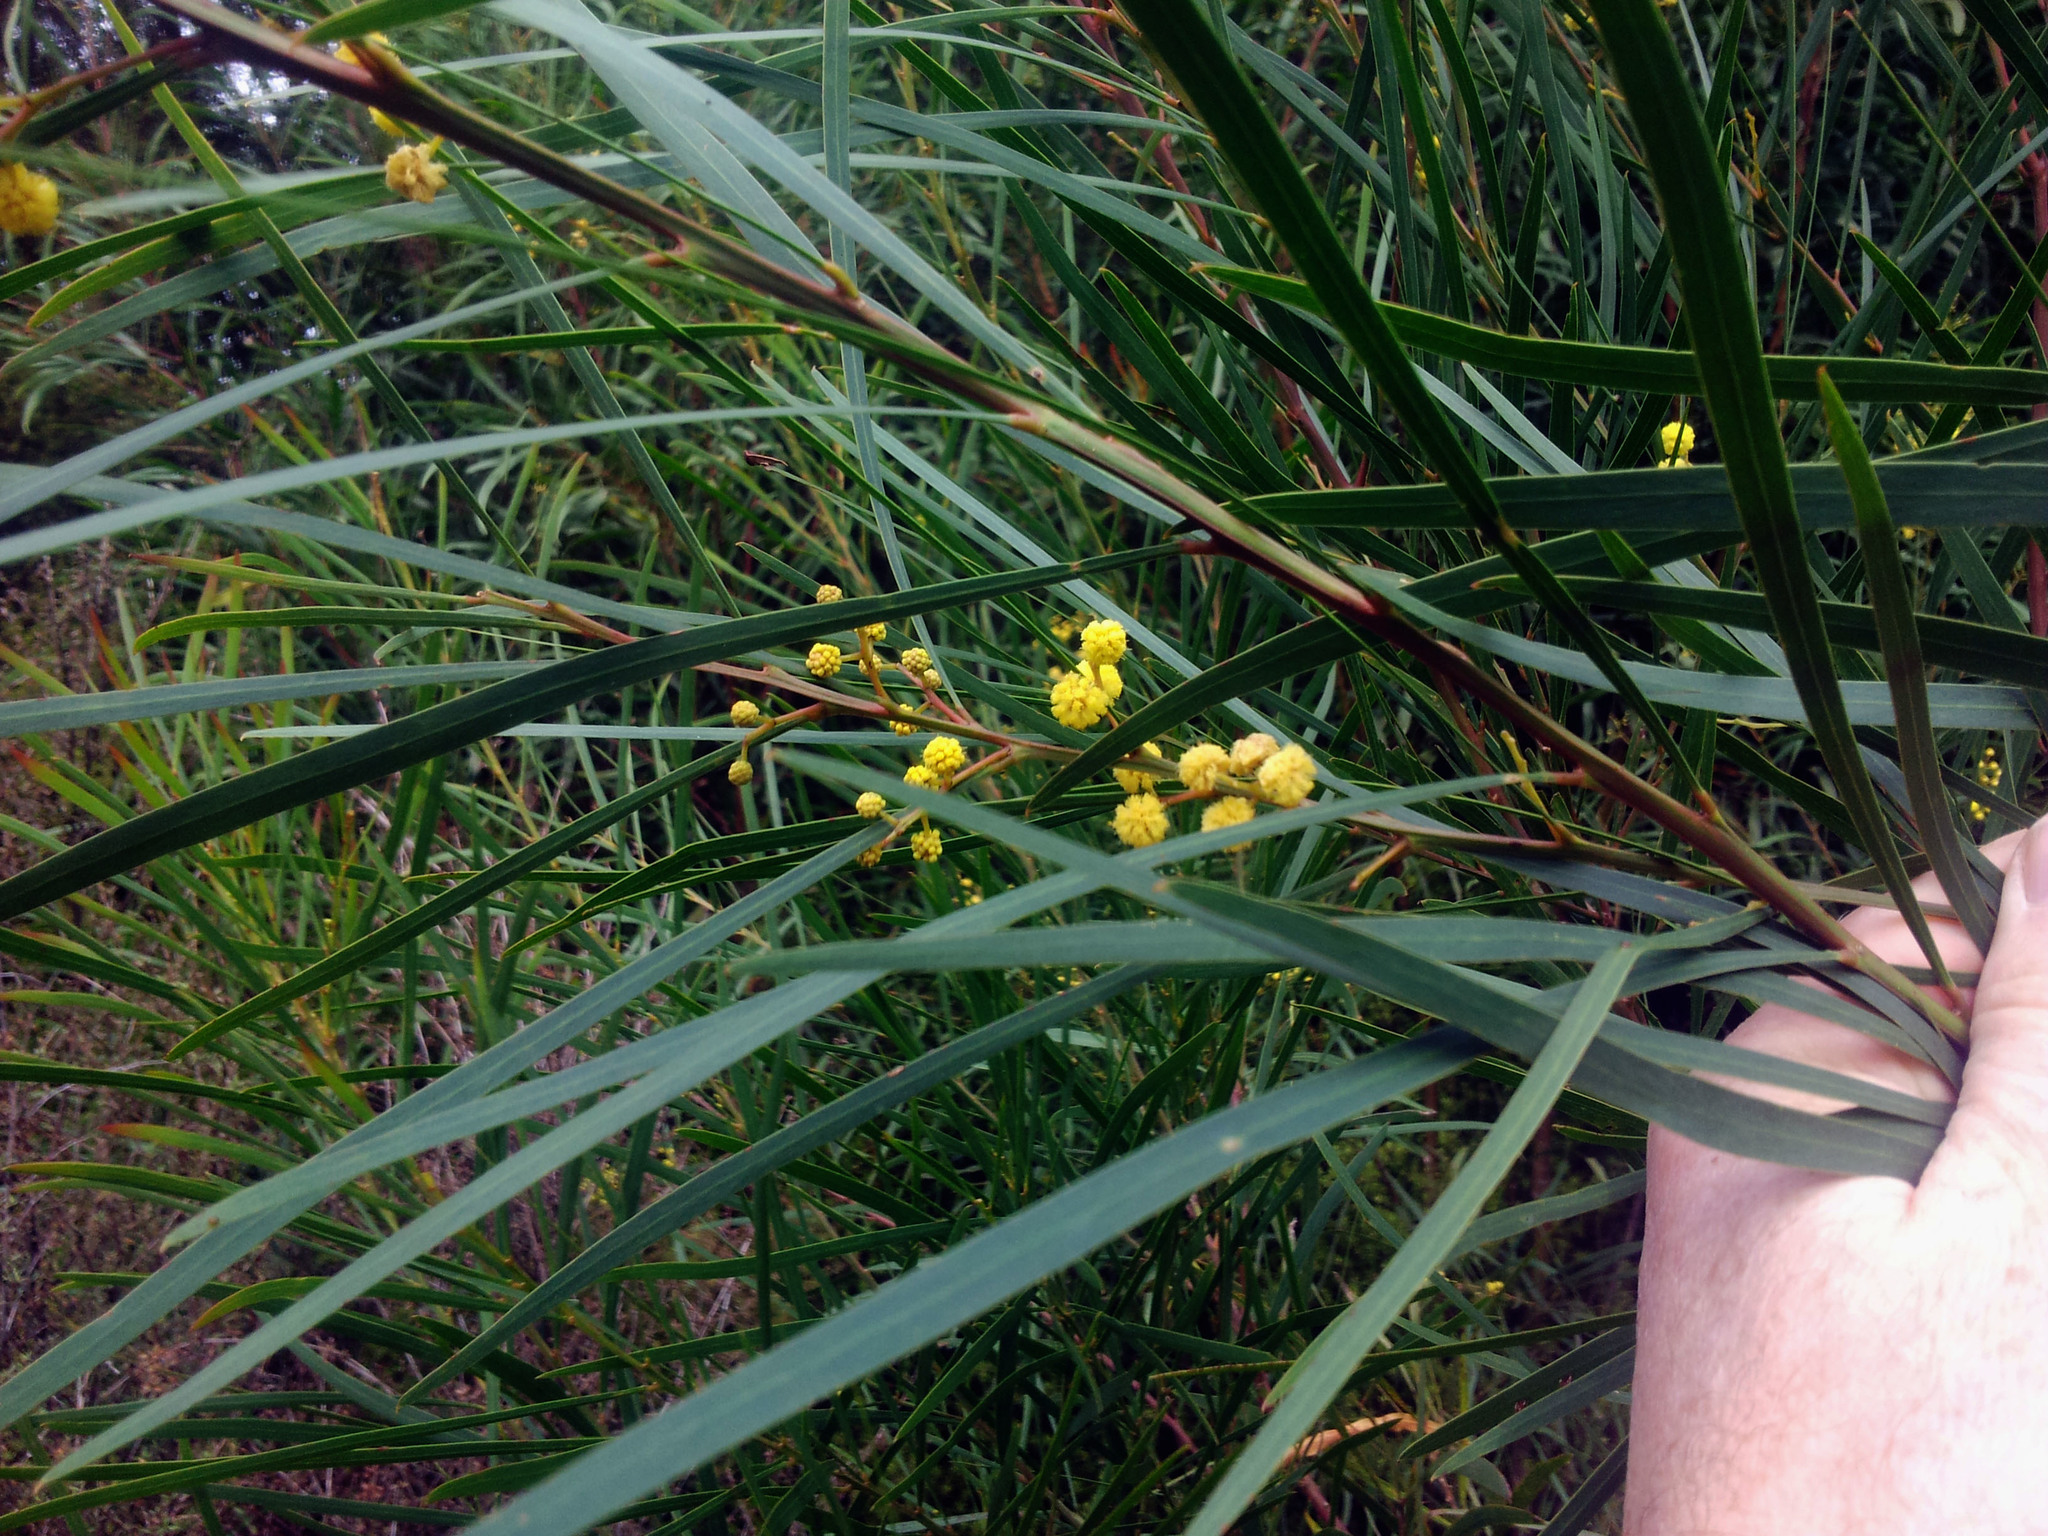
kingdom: Plantae
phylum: Tracheophyta
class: Magnoliopsida
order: Fabales
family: Fabaceae
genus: Acacia
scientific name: Acacia saligna
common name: Orange wattle
